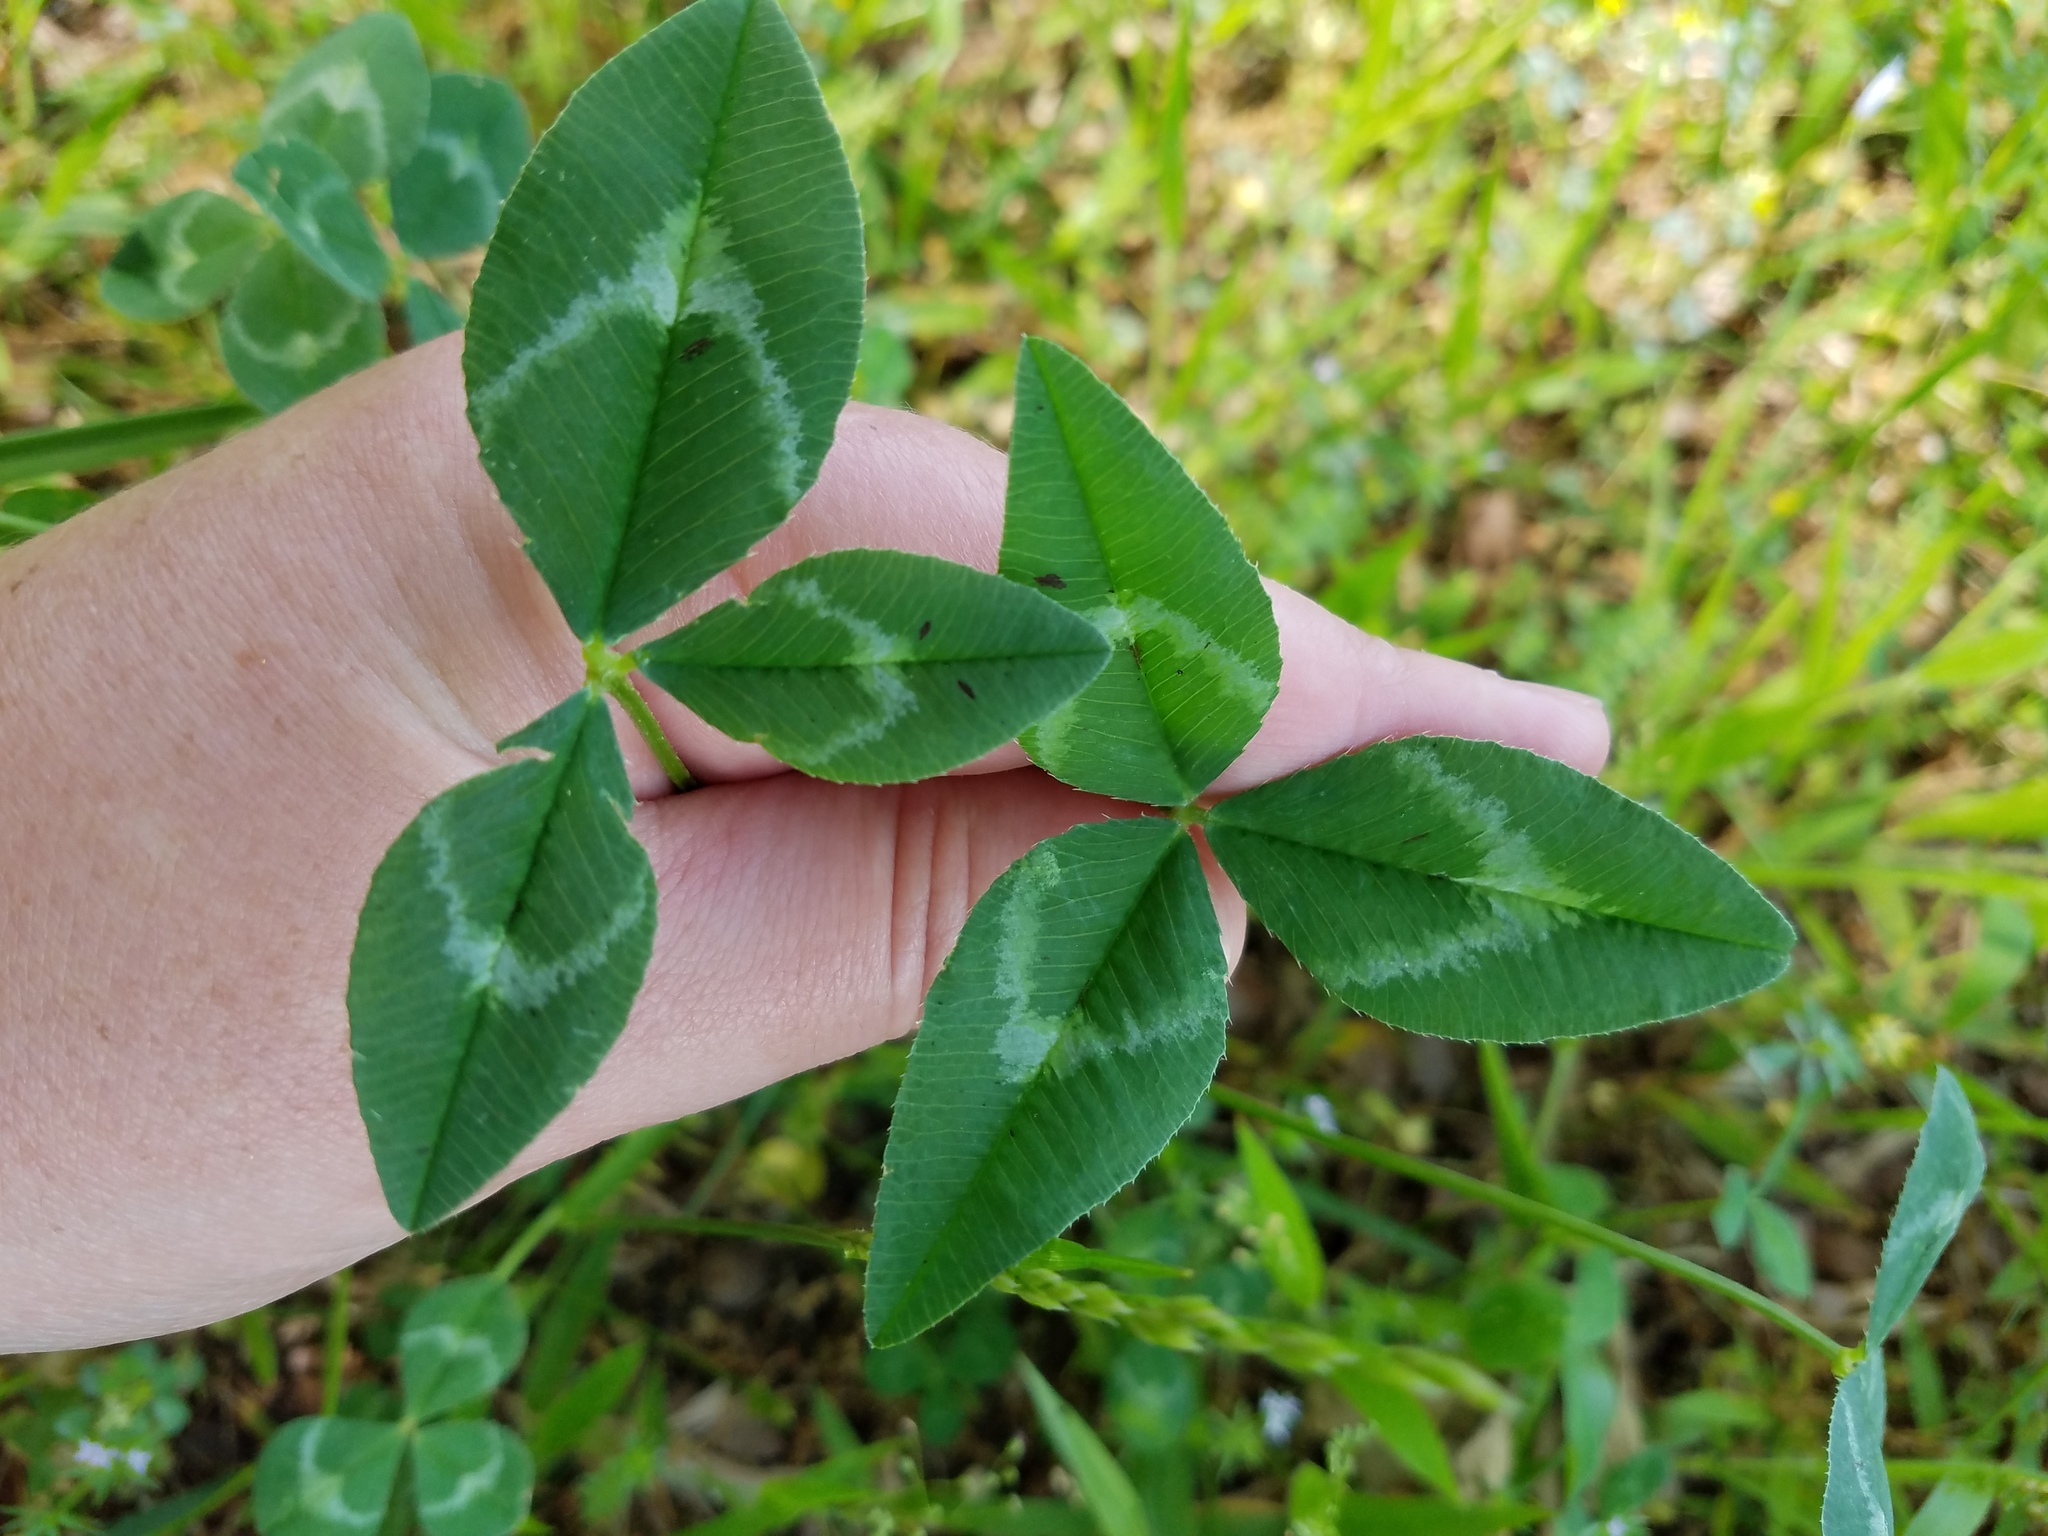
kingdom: Plantae
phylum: Tracheophyta
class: Magnoliopsida
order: Fabales
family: Fabaceae
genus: Trifolium
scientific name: Trifolium pratense
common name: Red clover
